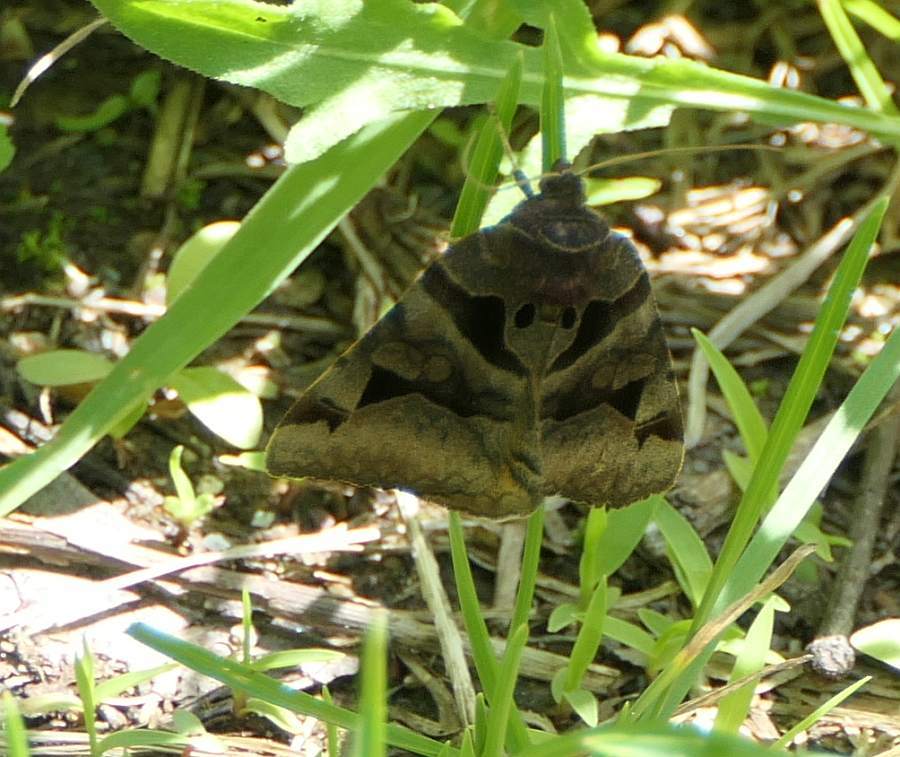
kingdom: Animalia
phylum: Arthropoda
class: Insecta
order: Lepidoptera
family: Erebidae
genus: Euclidia
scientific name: Euclidia cuspidea
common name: Toothed somberwing
